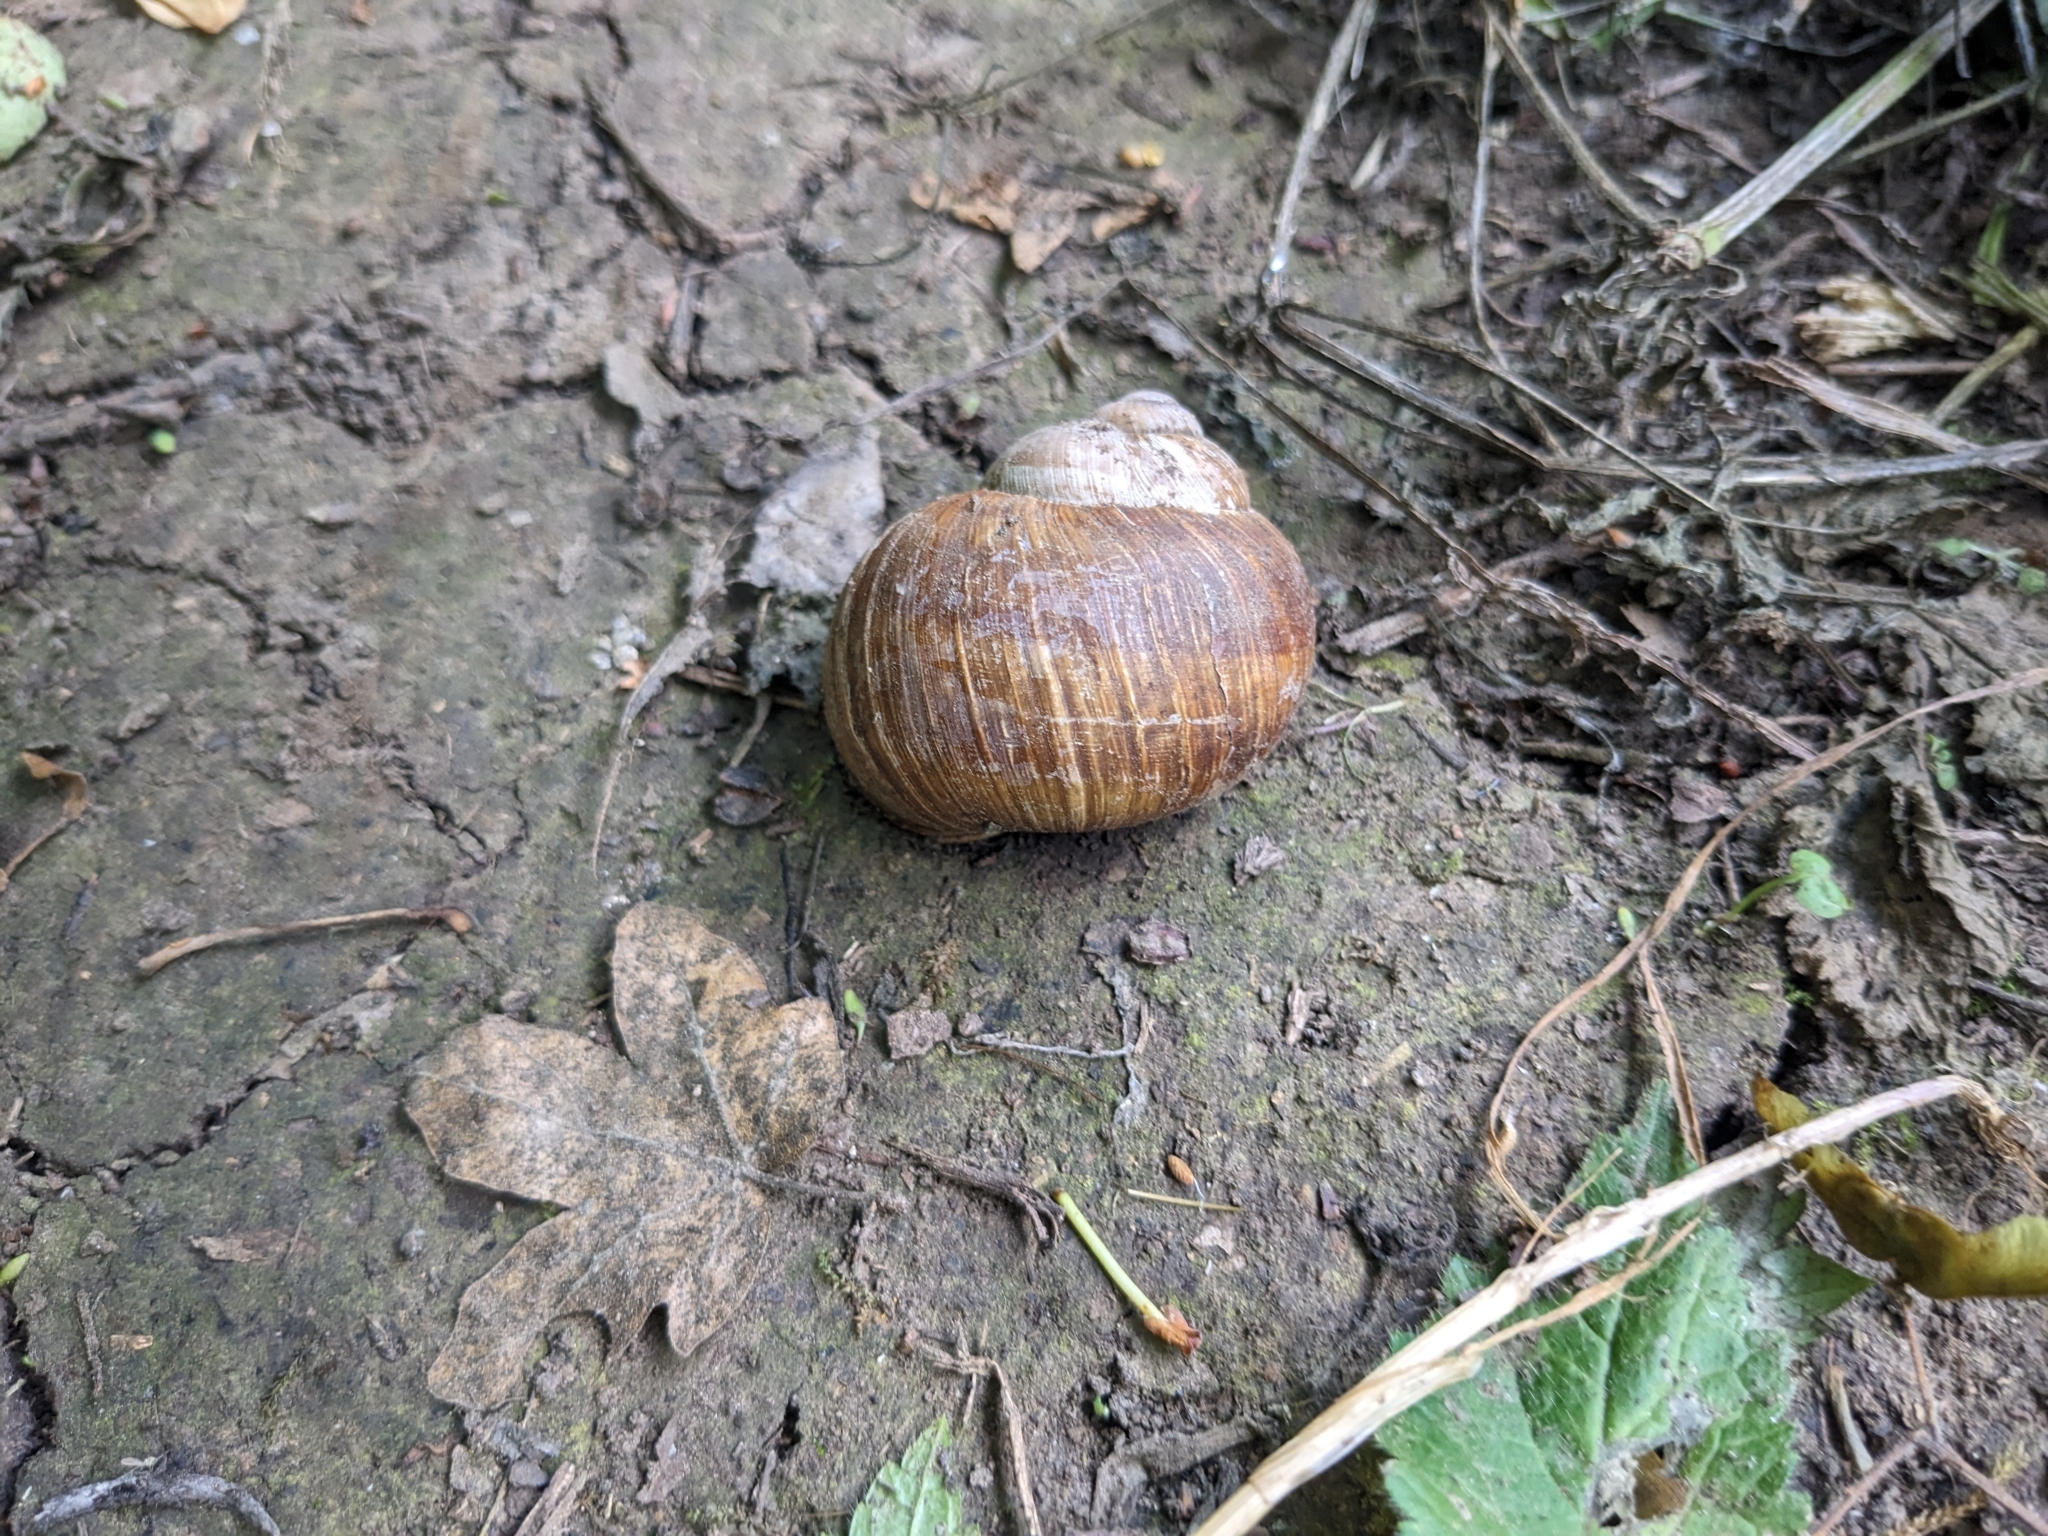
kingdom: Animalia
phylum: Mollusca
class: Gastropoda
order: Stylommatophora
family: Helicidae
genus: Helix
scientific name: Helix pomatia
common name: Roman snail
